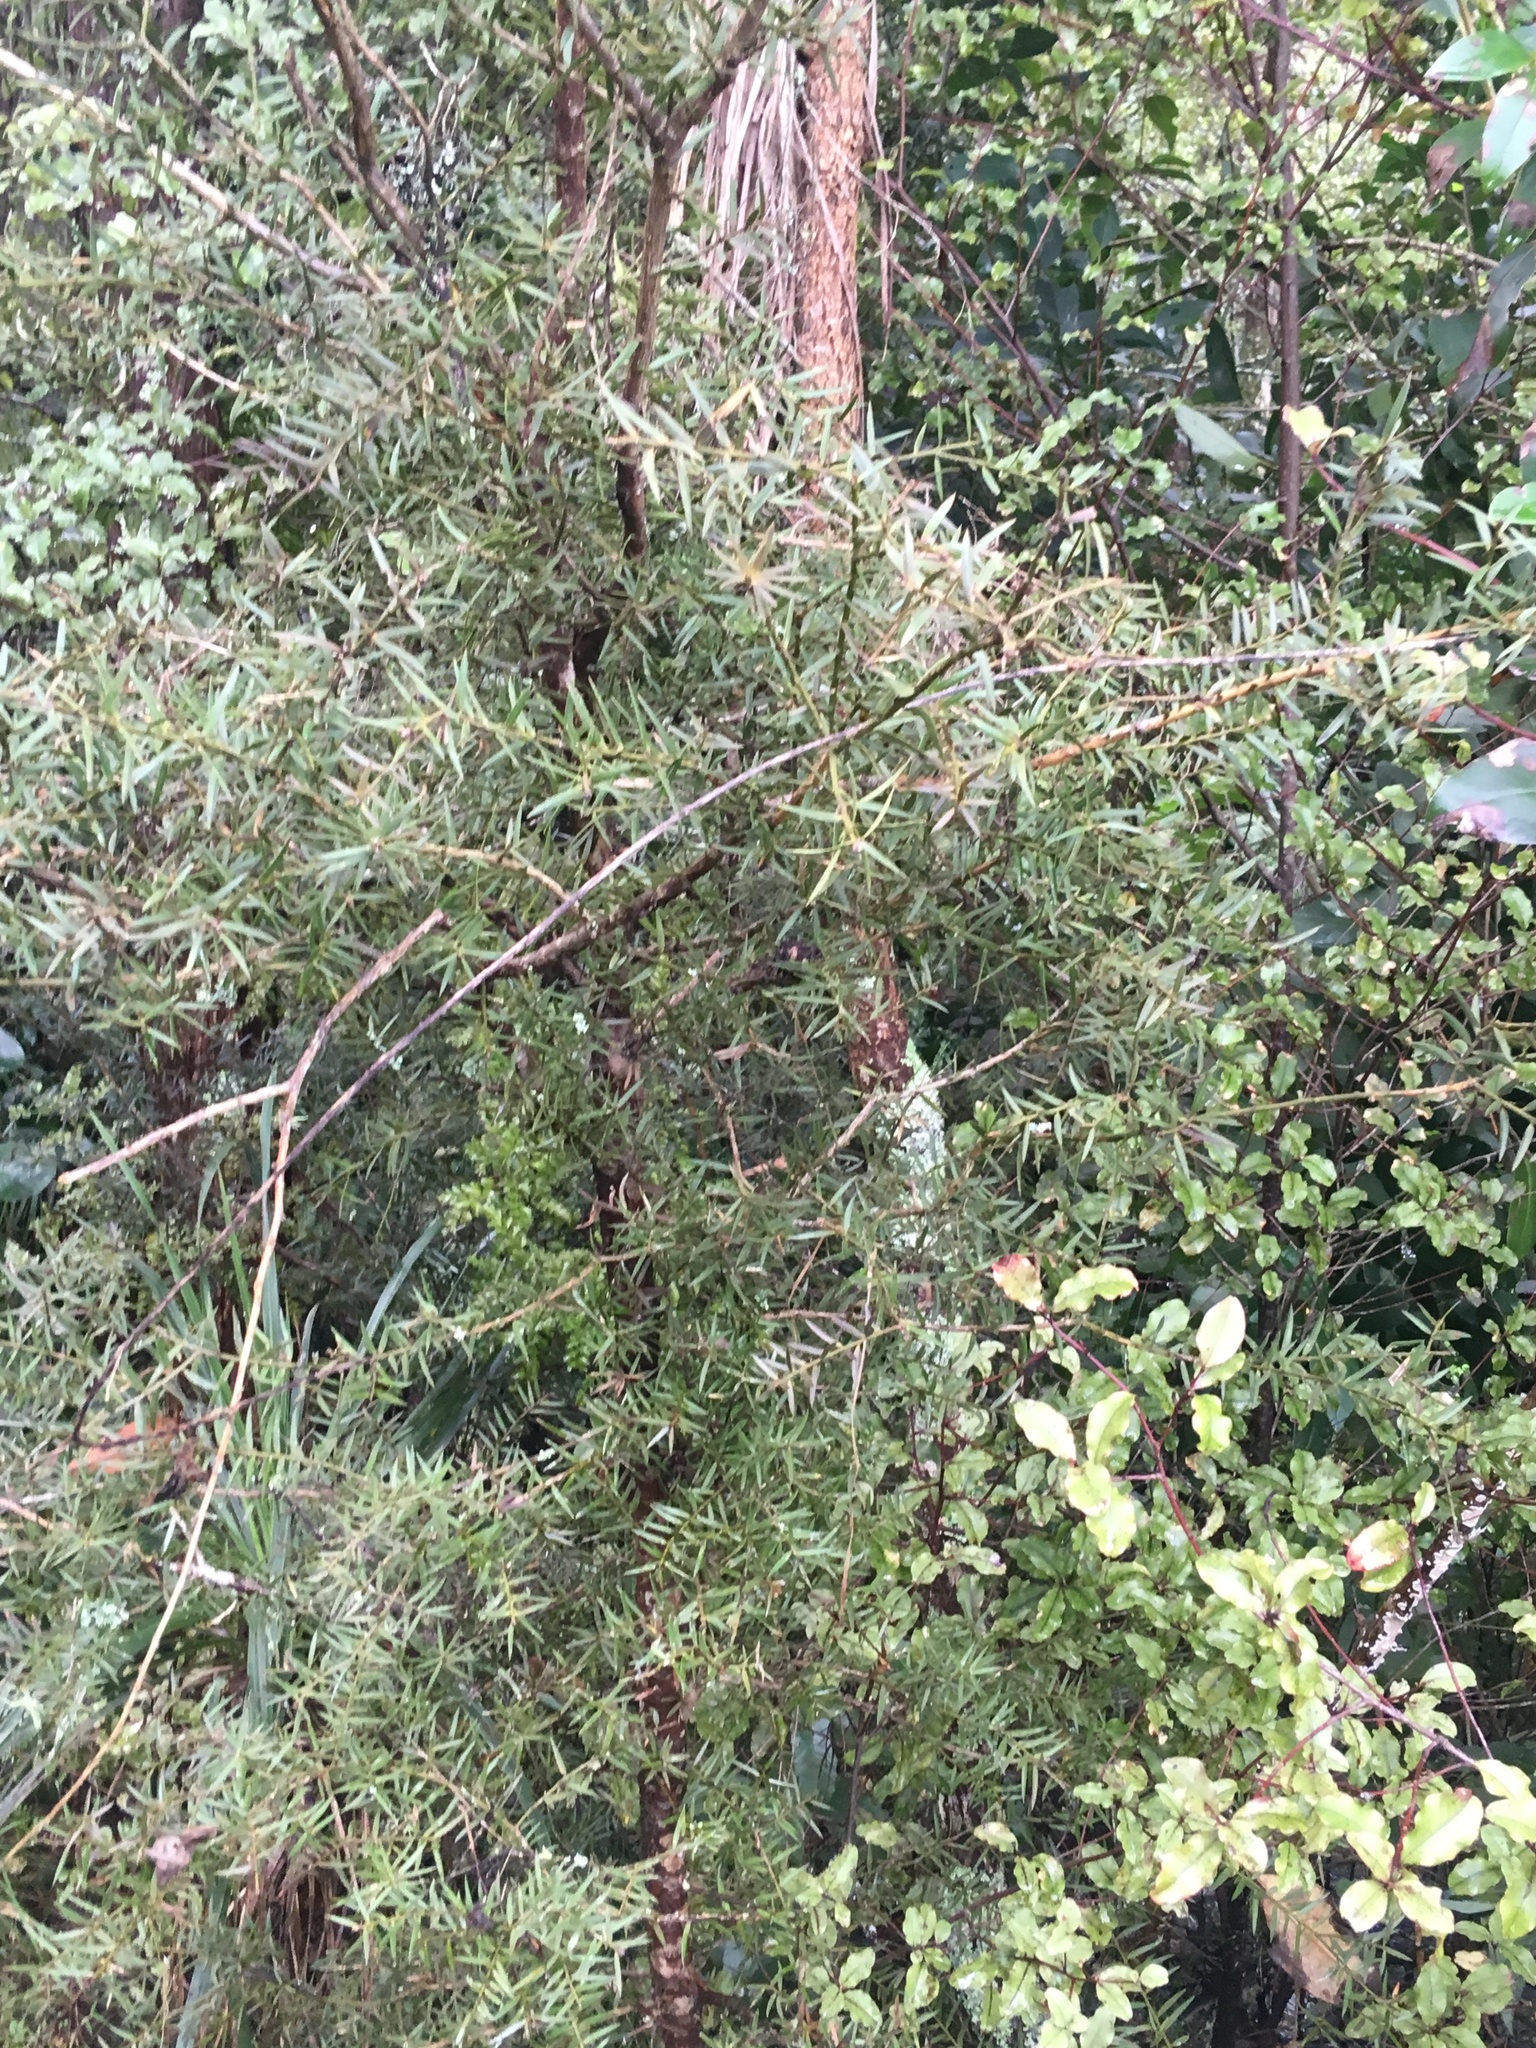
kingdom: Plantae
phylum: Tracheophyta
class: Pinopsida
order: Pinales
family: Podocarpaceae
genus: Podocarpus
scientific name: Podocarpus totara
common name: Totara
